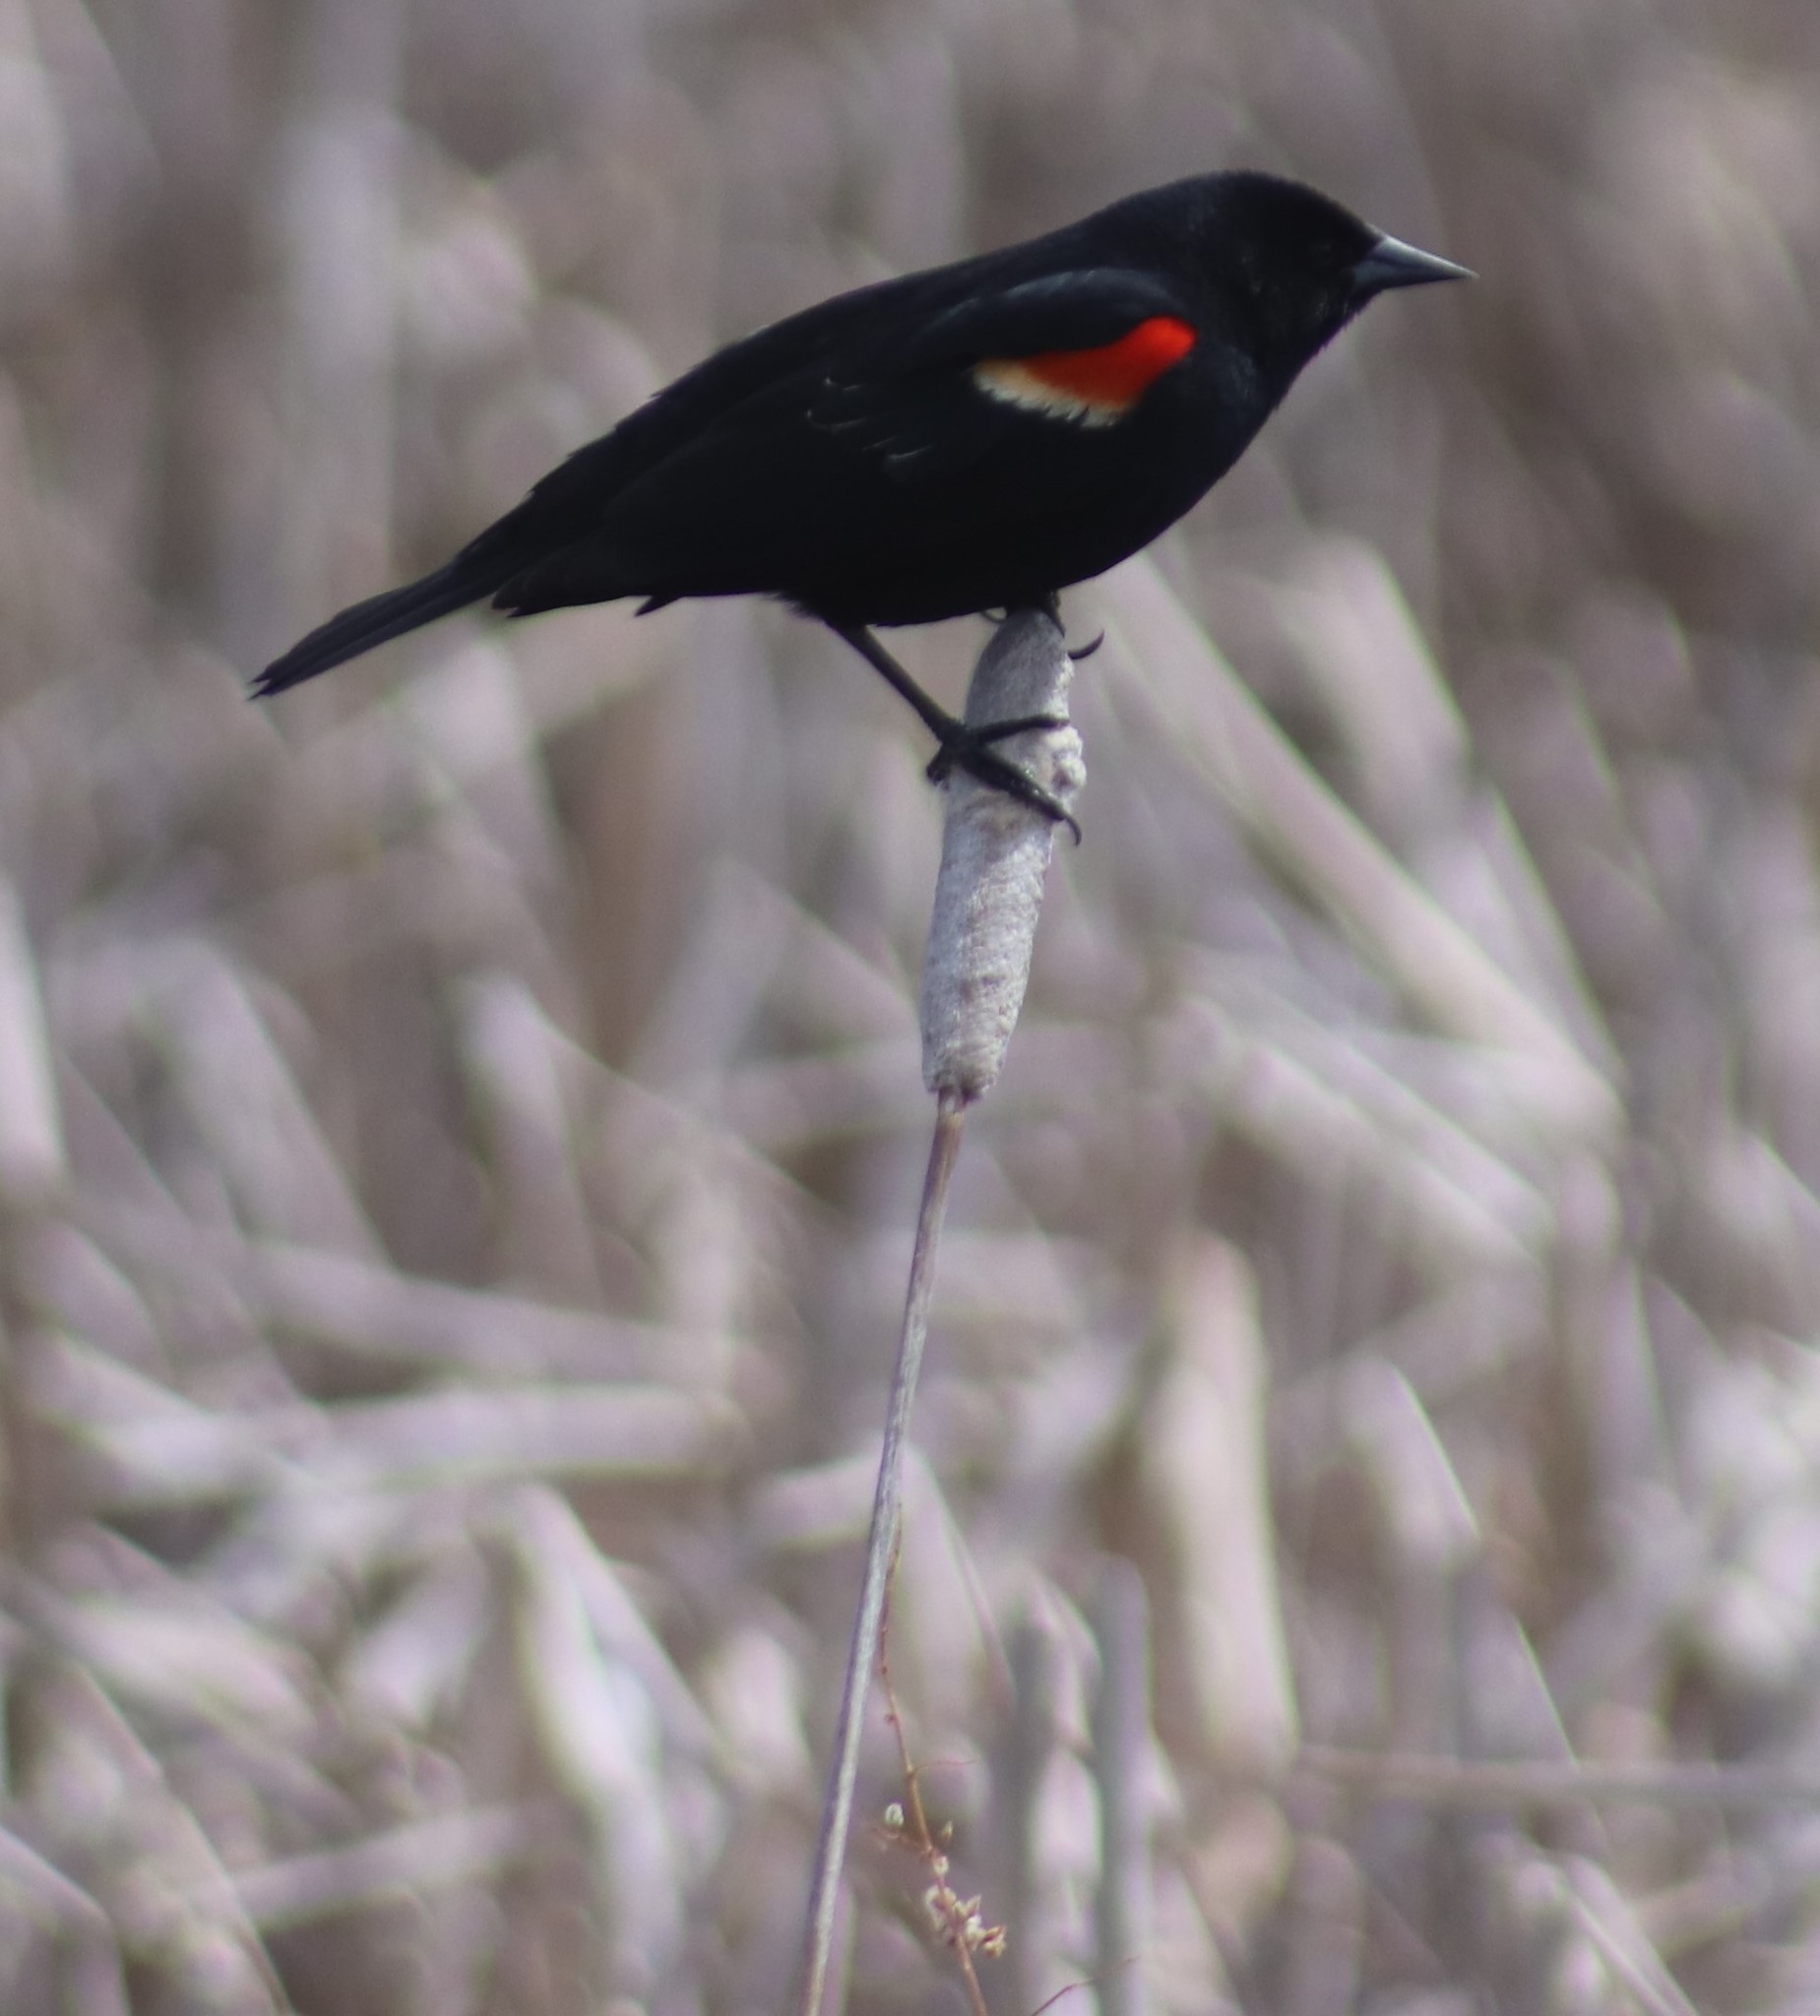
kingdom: Animalia
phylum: Chordata
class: Aves
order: Passeriformes
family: Icteridae
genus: Agelaius
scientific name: Agelaius phoeniceus
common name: Red-winged blackbird
